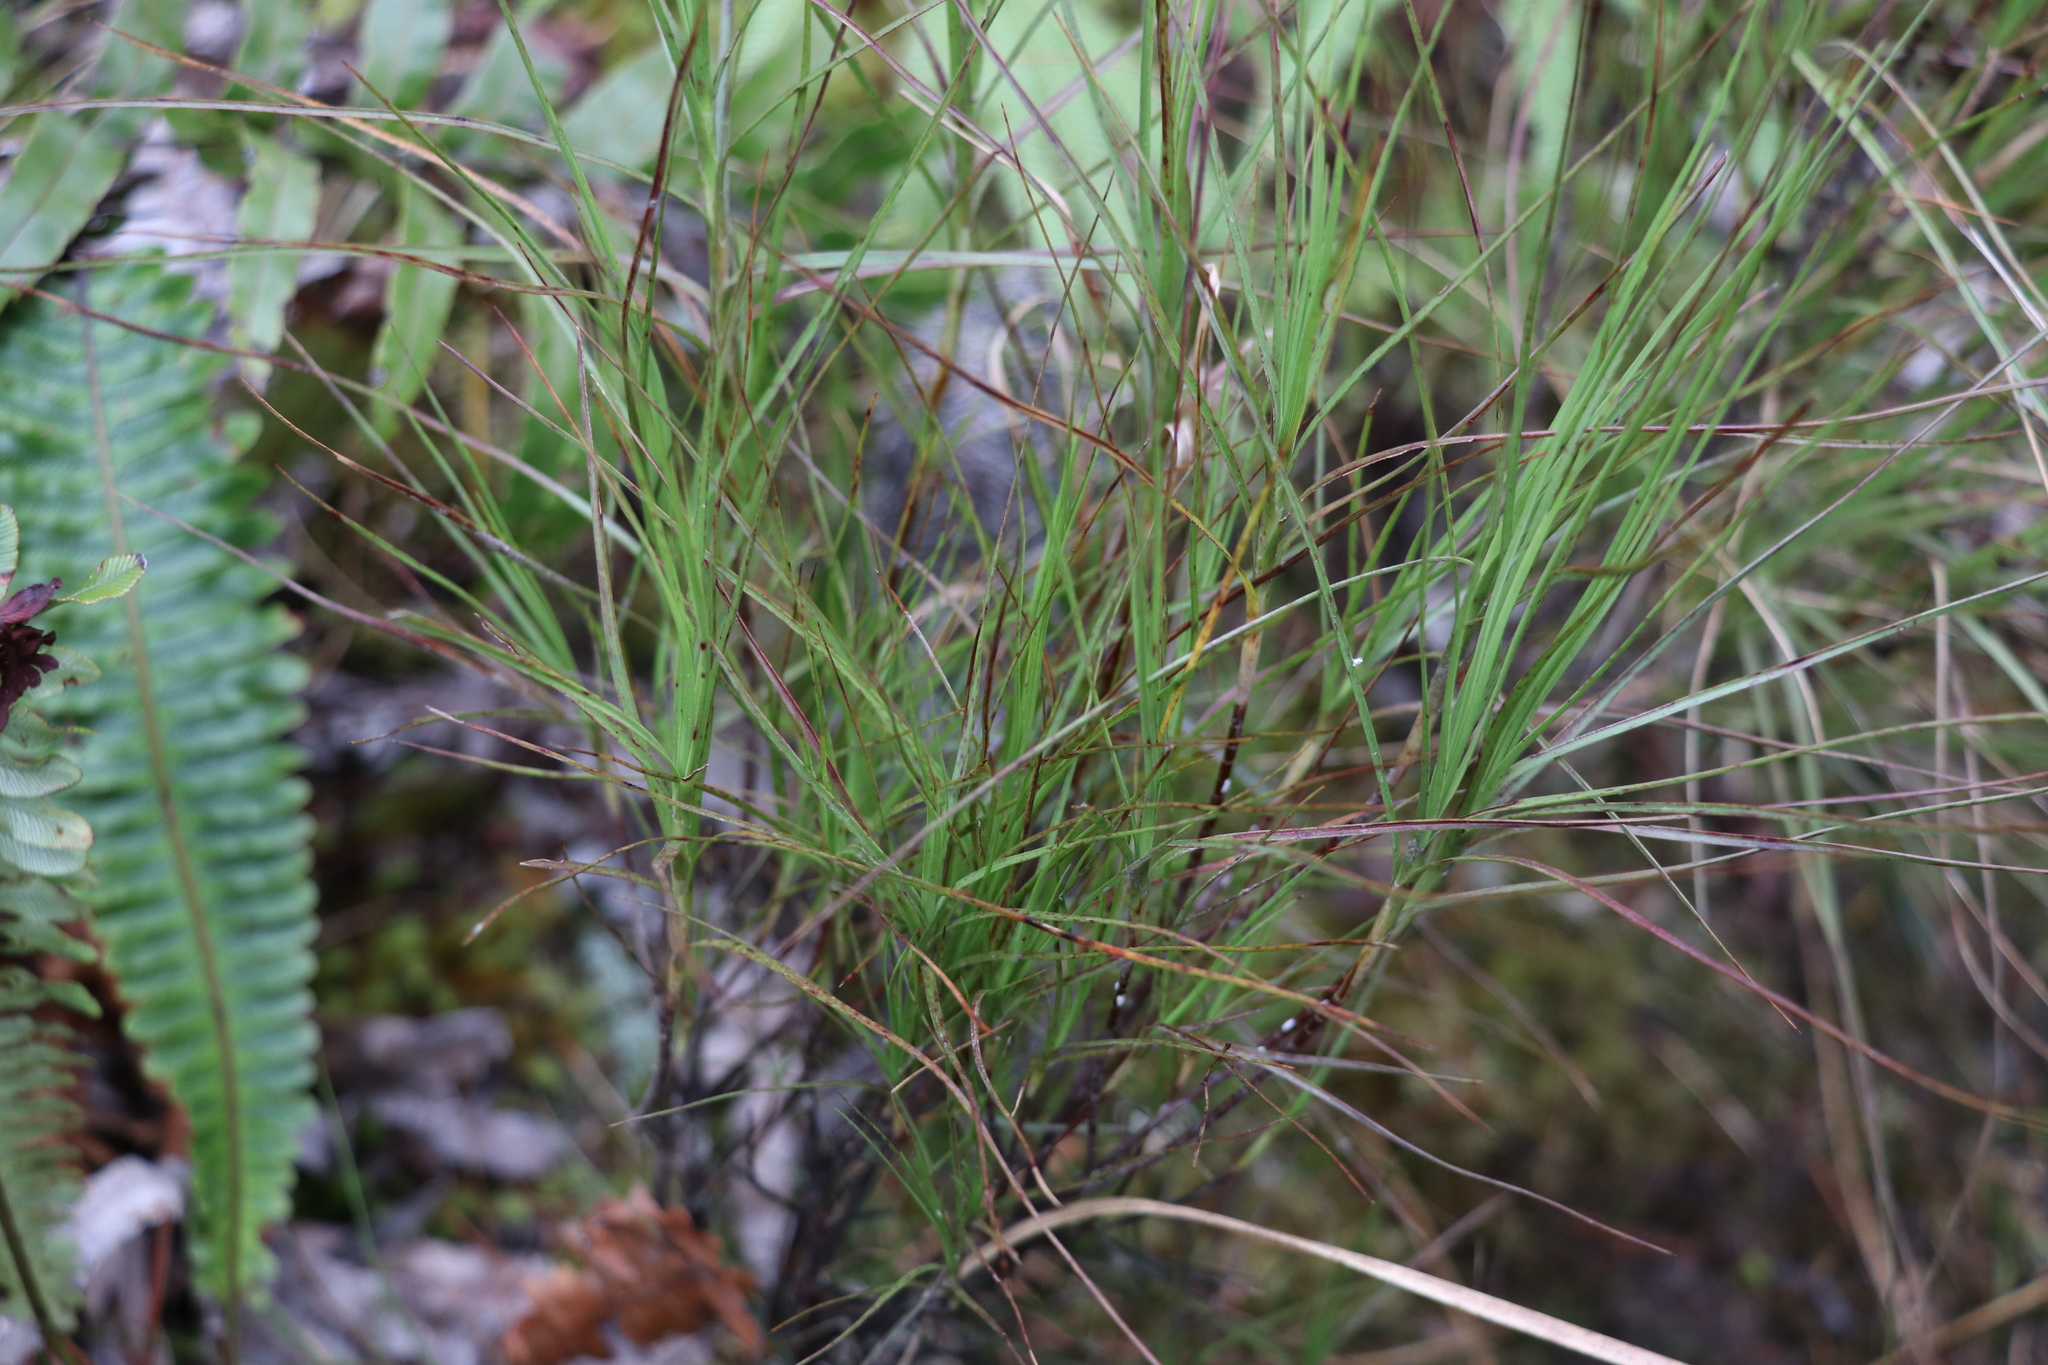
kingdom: Plantae
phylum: Tracheophyta
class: Magnoliopsida
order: Ericales
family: Ericaceae
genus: Dracophyllum
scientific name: Dracophyllum filifolium
